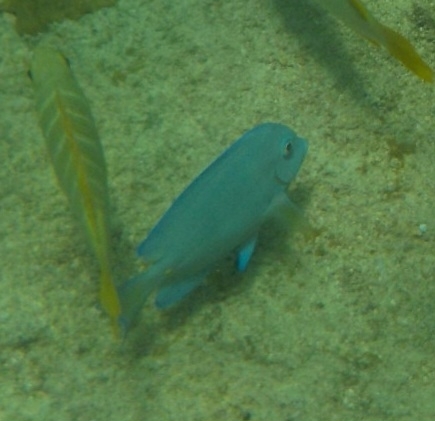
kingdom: Animalia
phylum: Chordata
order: Perciformes
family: Acanthuridae
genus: Acanthurus
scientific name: Acanthurus coeruleus
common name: Blue tang
